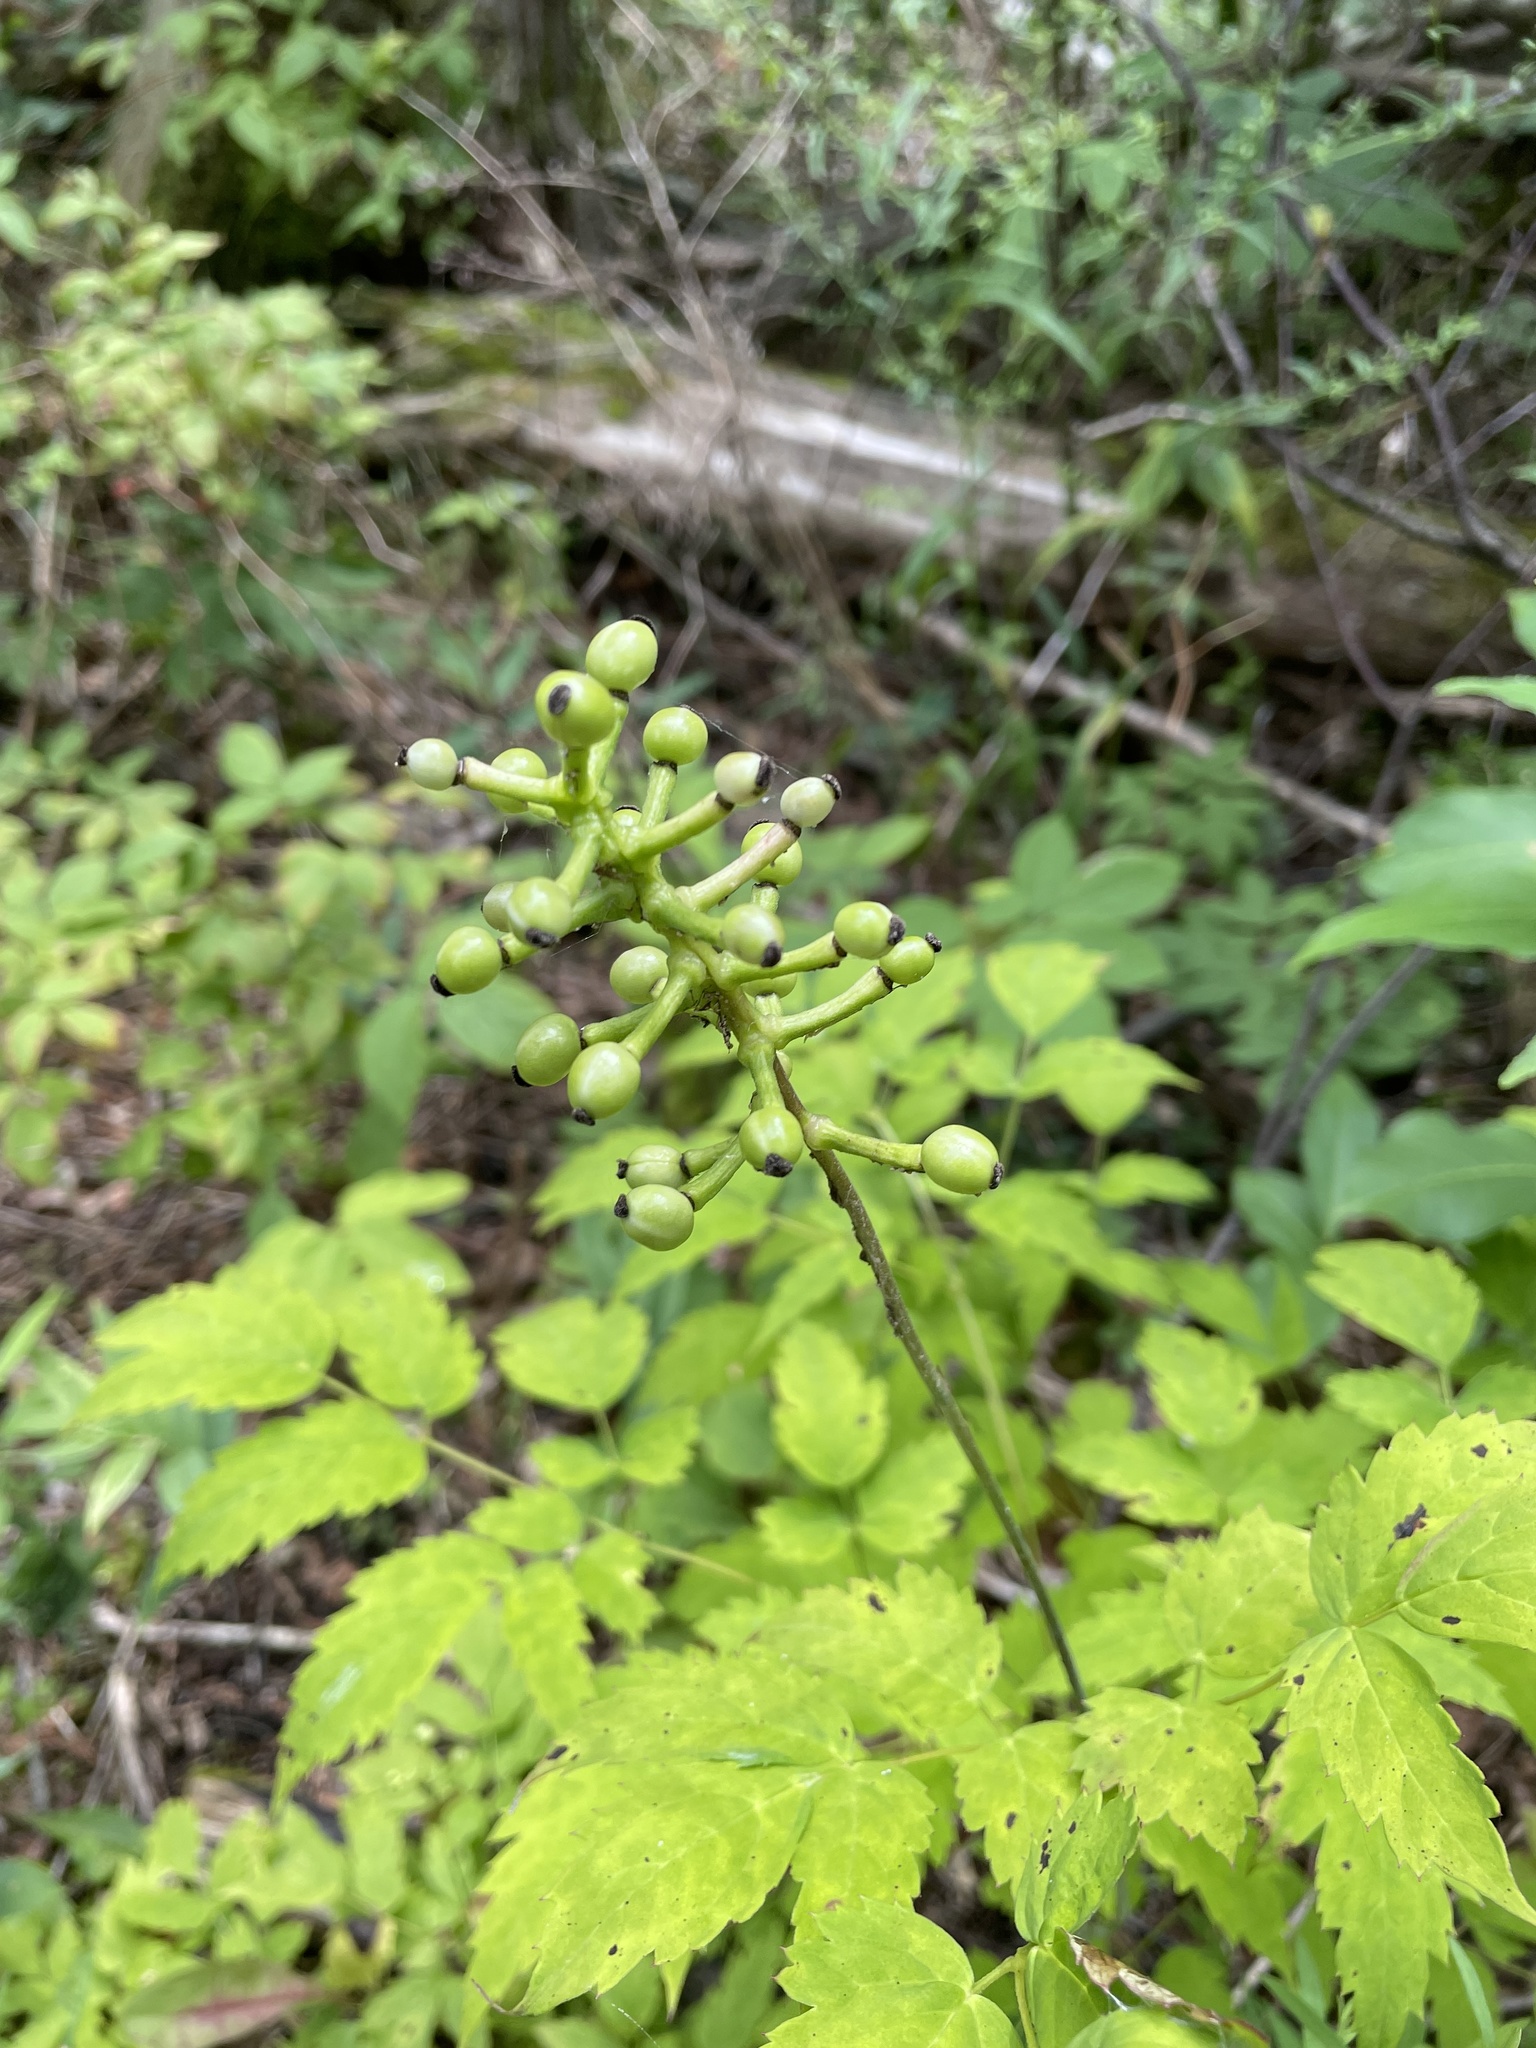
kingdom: Plantae
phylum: Tracheophyta
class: Magnoliopsida
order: Ranunculales
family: Ranunculaceae
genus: Actaea
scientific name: Actaea pachypoda
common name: Doll's-eyes
